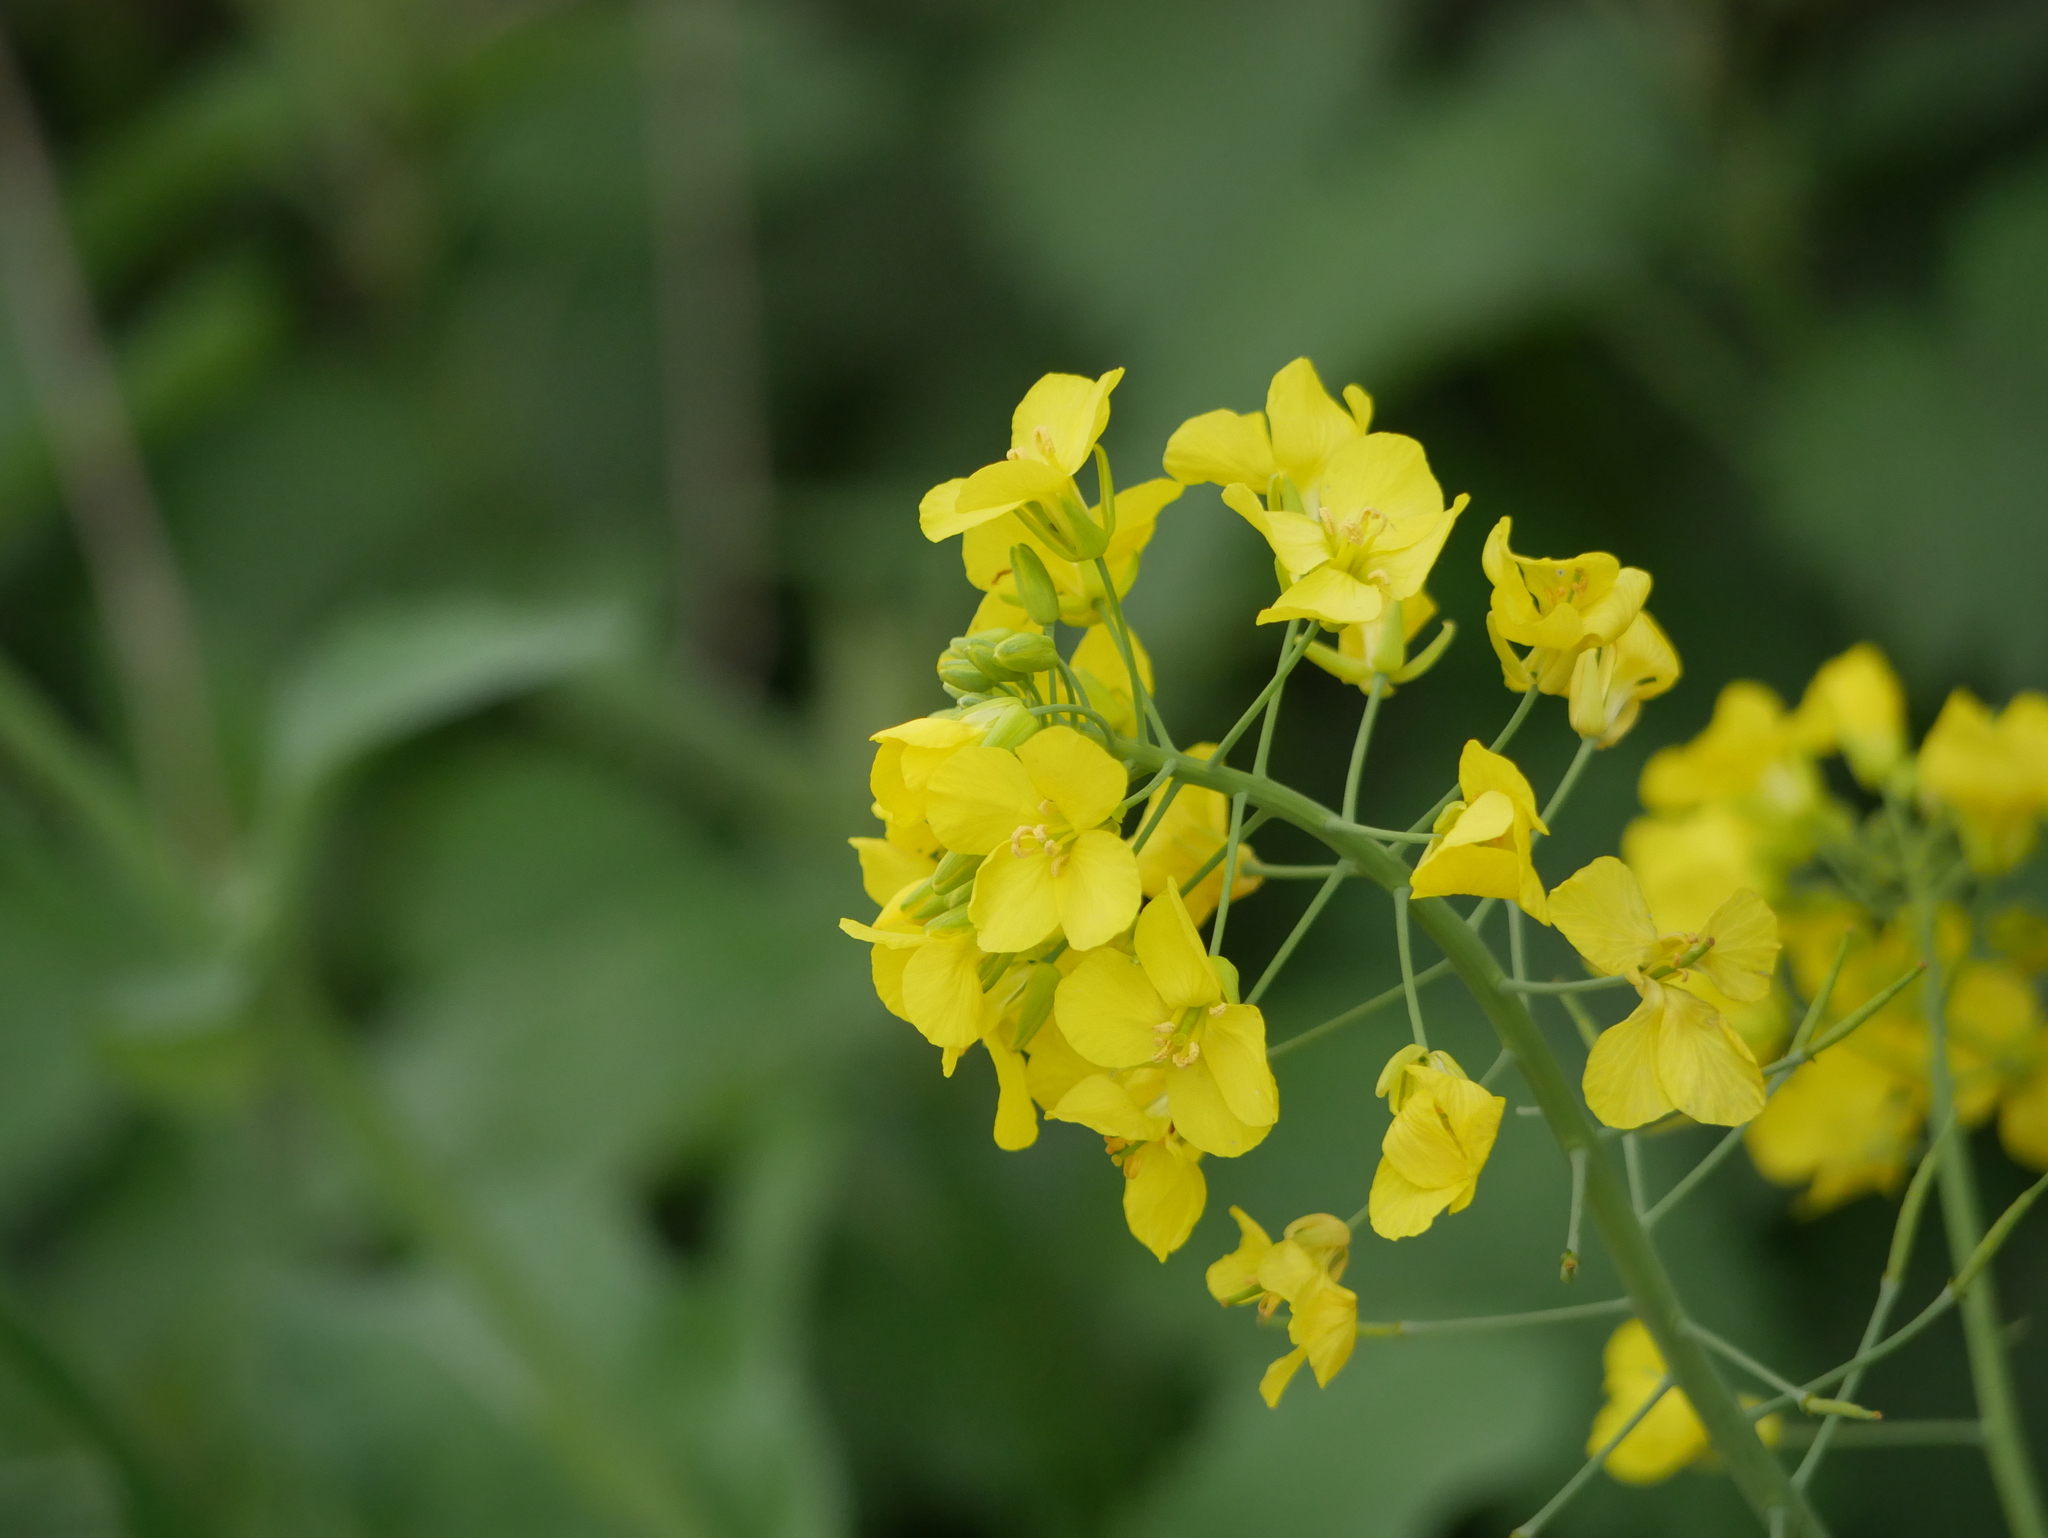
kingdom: Plantae
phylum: Tracheophyta
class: Magnoliopsida
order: Brassicales
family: Brassicaceae
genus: Brassica
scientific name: Brassica napus
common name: Rape
